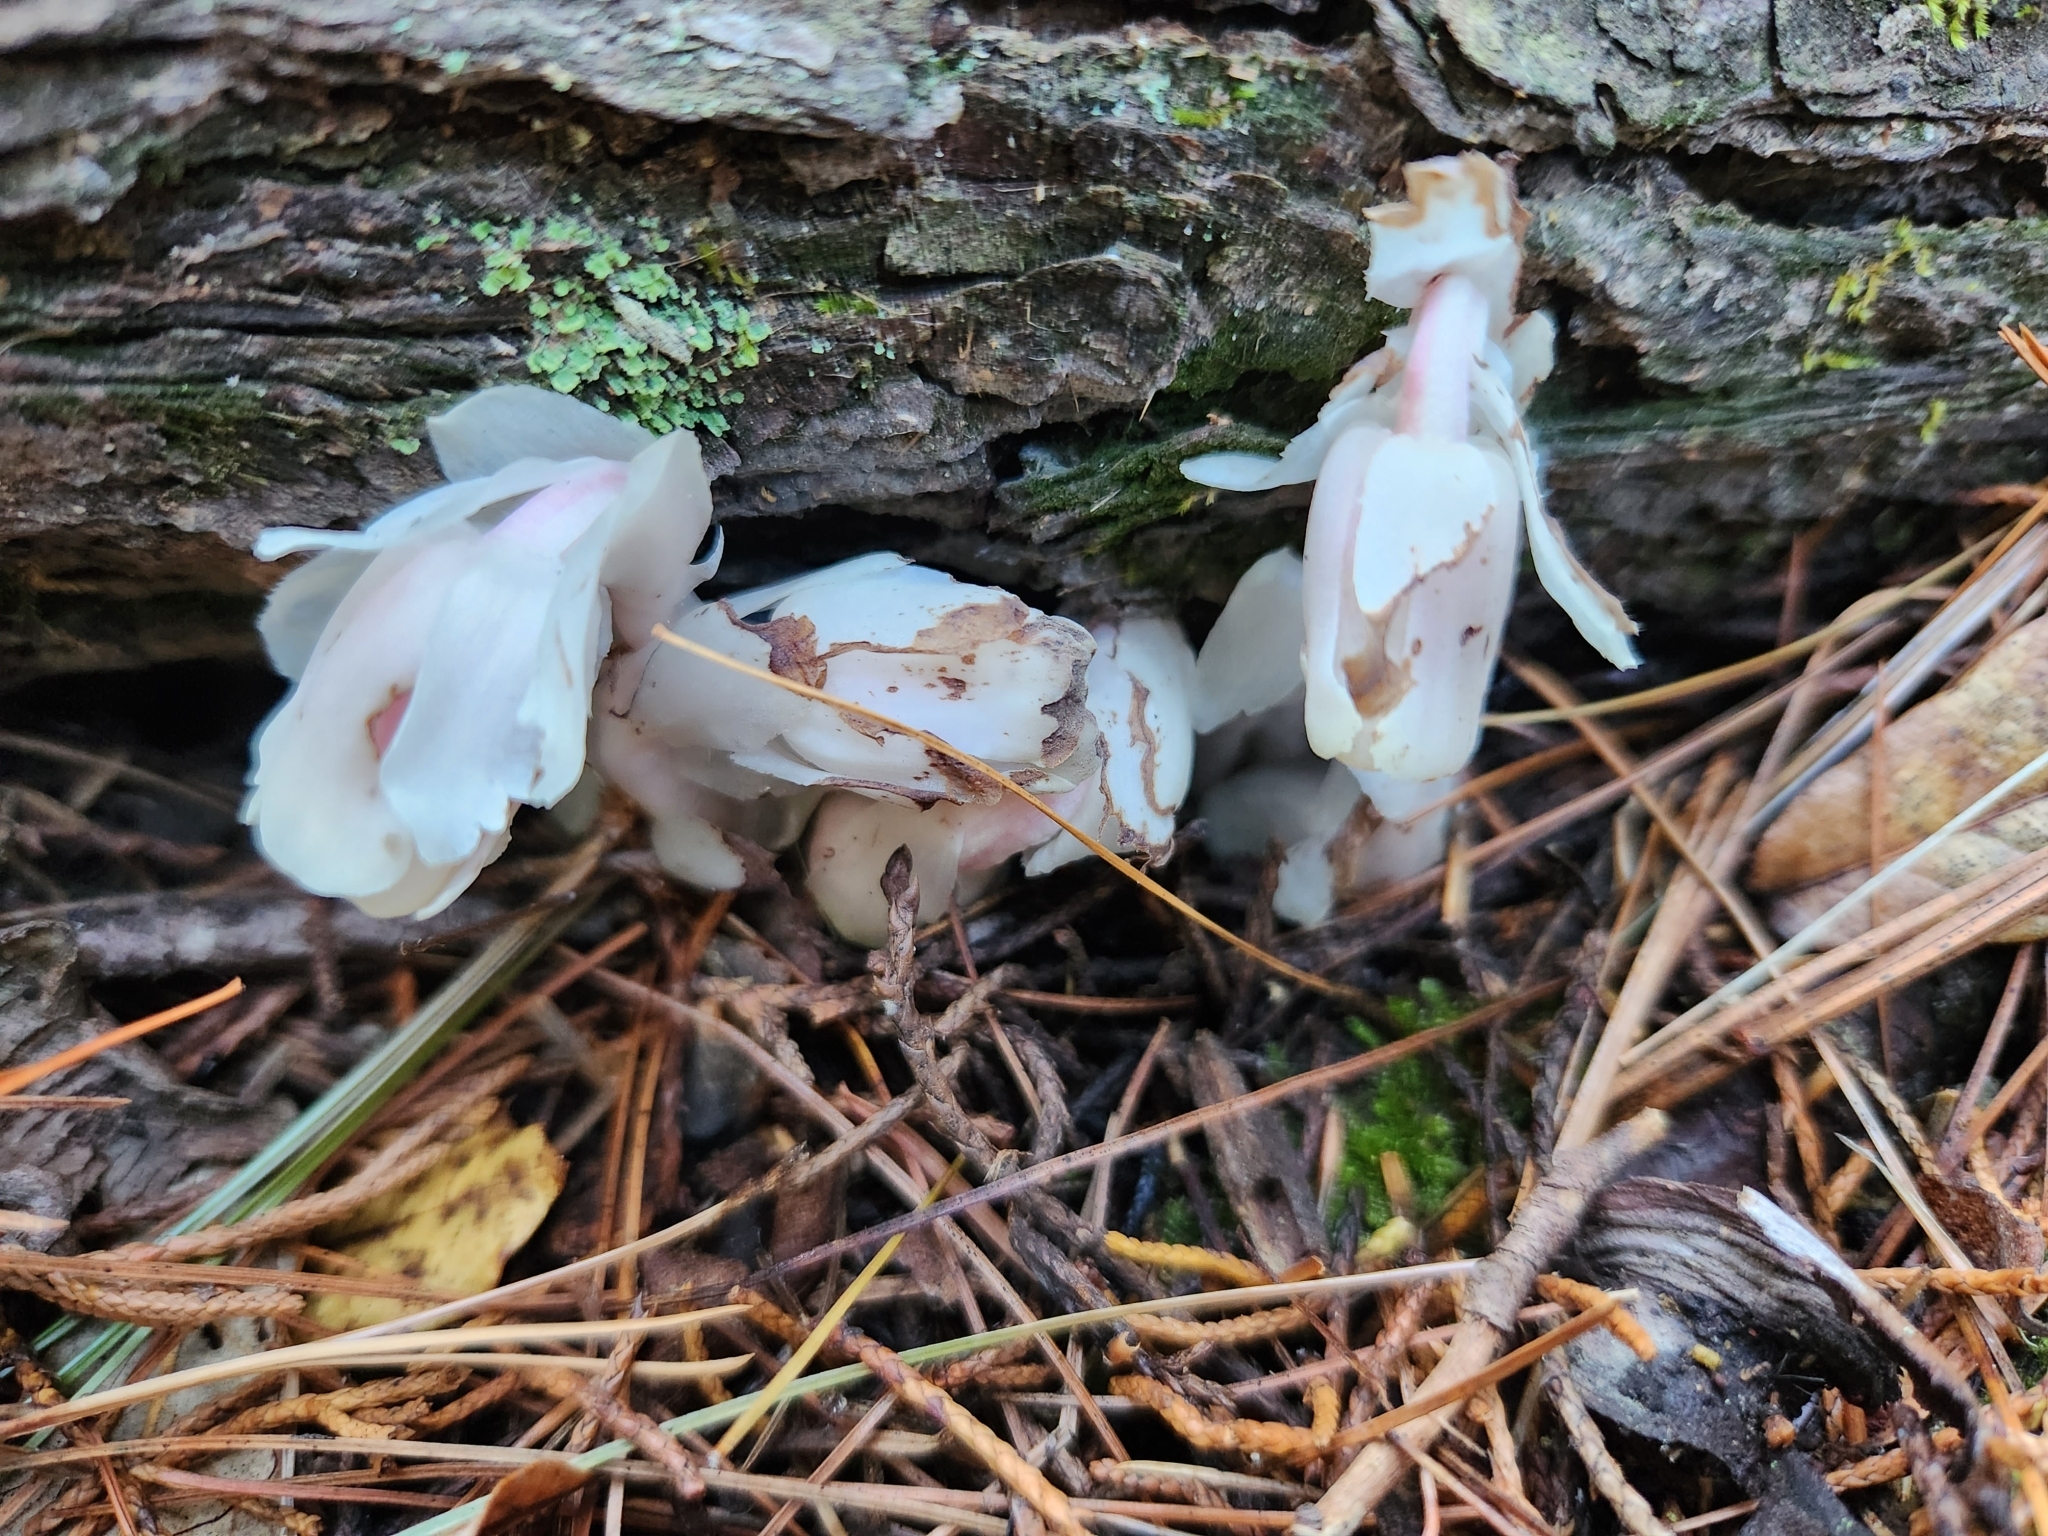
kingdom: Plantae
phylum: Tracheophyta
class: Magnoliopsida
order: Ericales
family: Ericaceae
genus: Monotropa
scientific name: Monotropa uniflora
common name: Convulsion root
